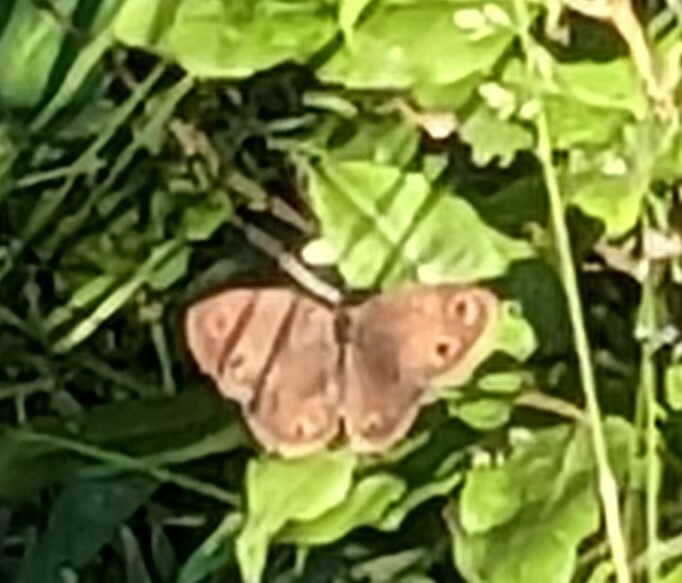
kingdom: Animalia
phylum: Arthropoda
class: Insecta
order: Lepidoptera
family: Nymphalidae
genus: Euptychia
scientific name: Euptychia cymela
